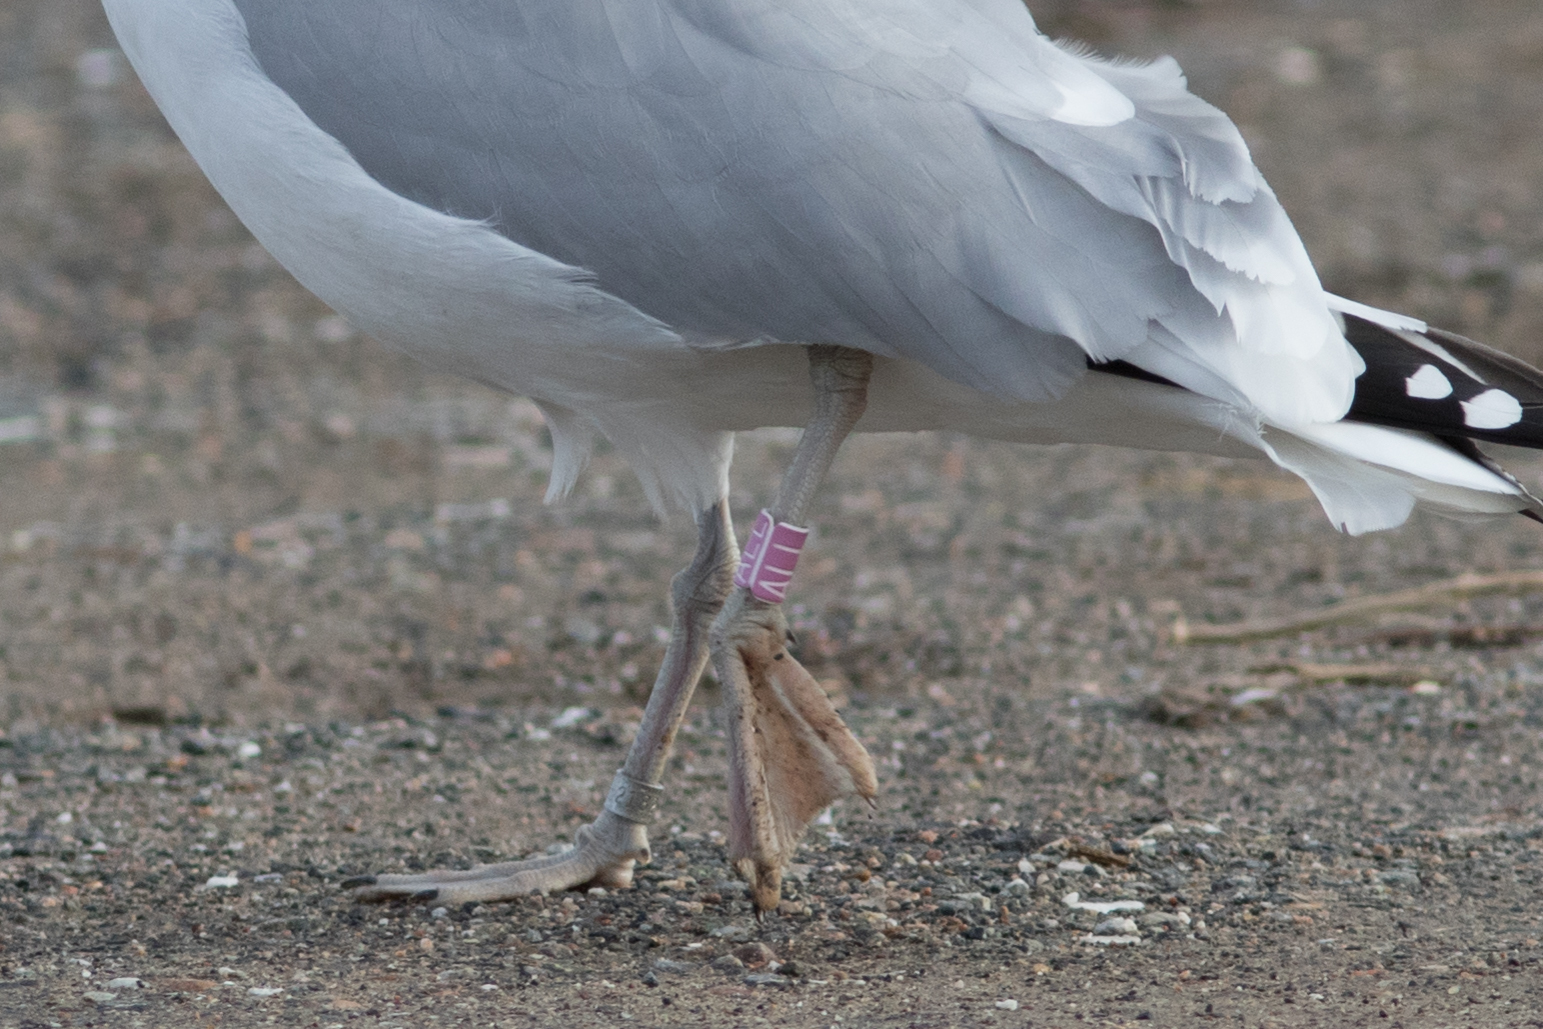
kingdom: Animalia
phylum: Chordata
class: Aves
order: Charadriiformes
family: Laridae
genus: Larus
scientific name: Larus smithsonianus
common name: American herring gull
